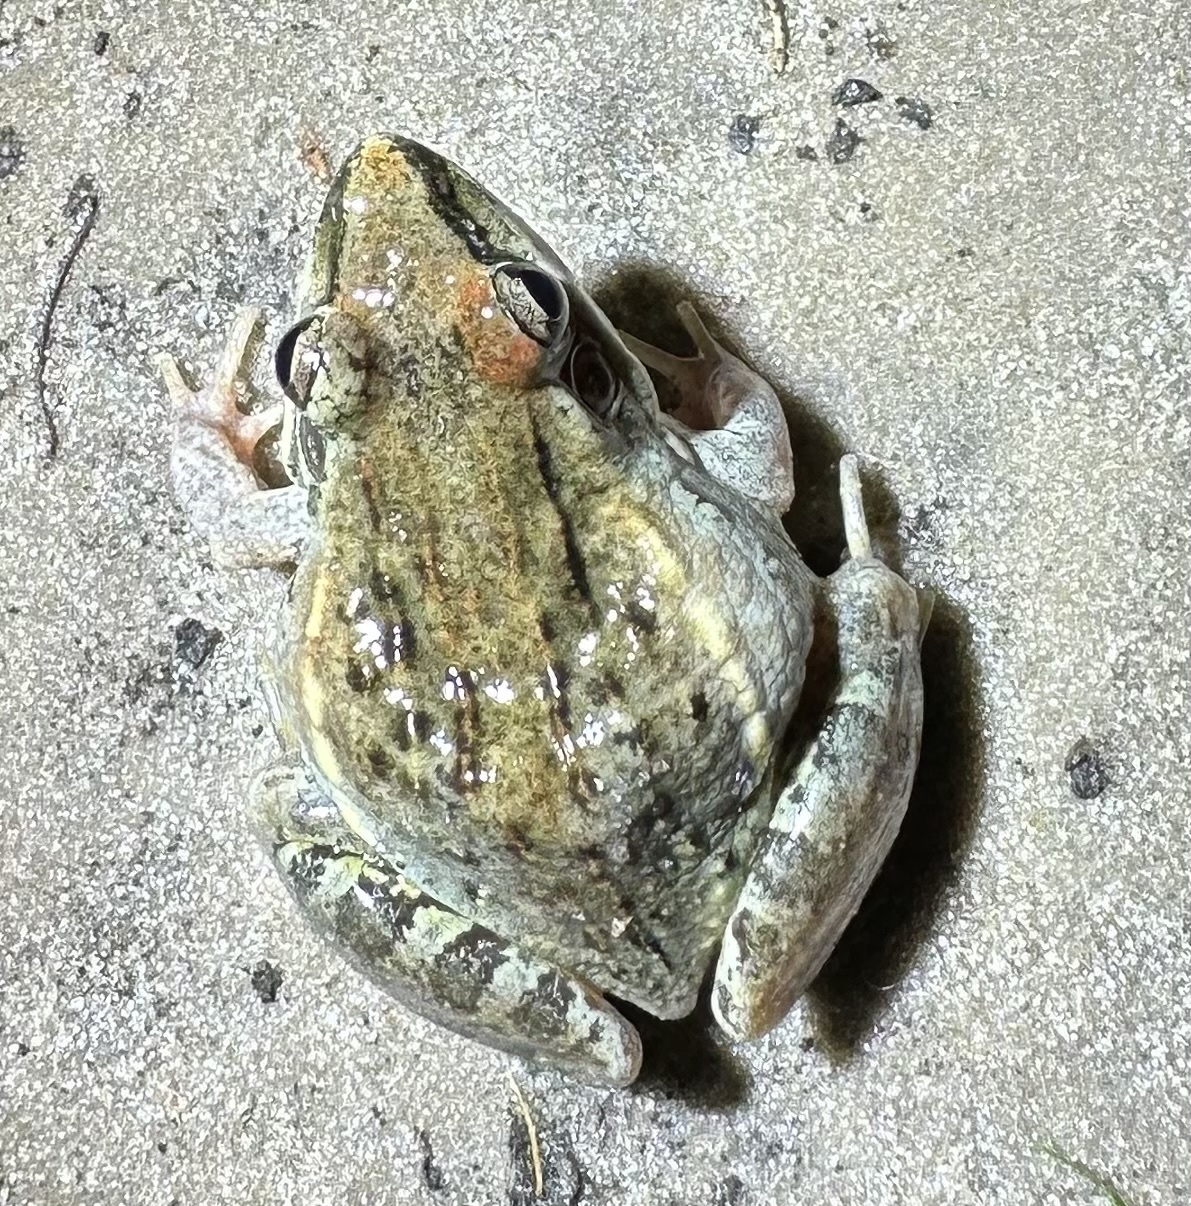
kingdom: Animalia
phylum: Chordata
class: Amphibia
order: Anura
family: Ptychadenidae
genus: Ptychadena
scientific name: Ptychadena mossambica
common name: Mozambique ridged frog
